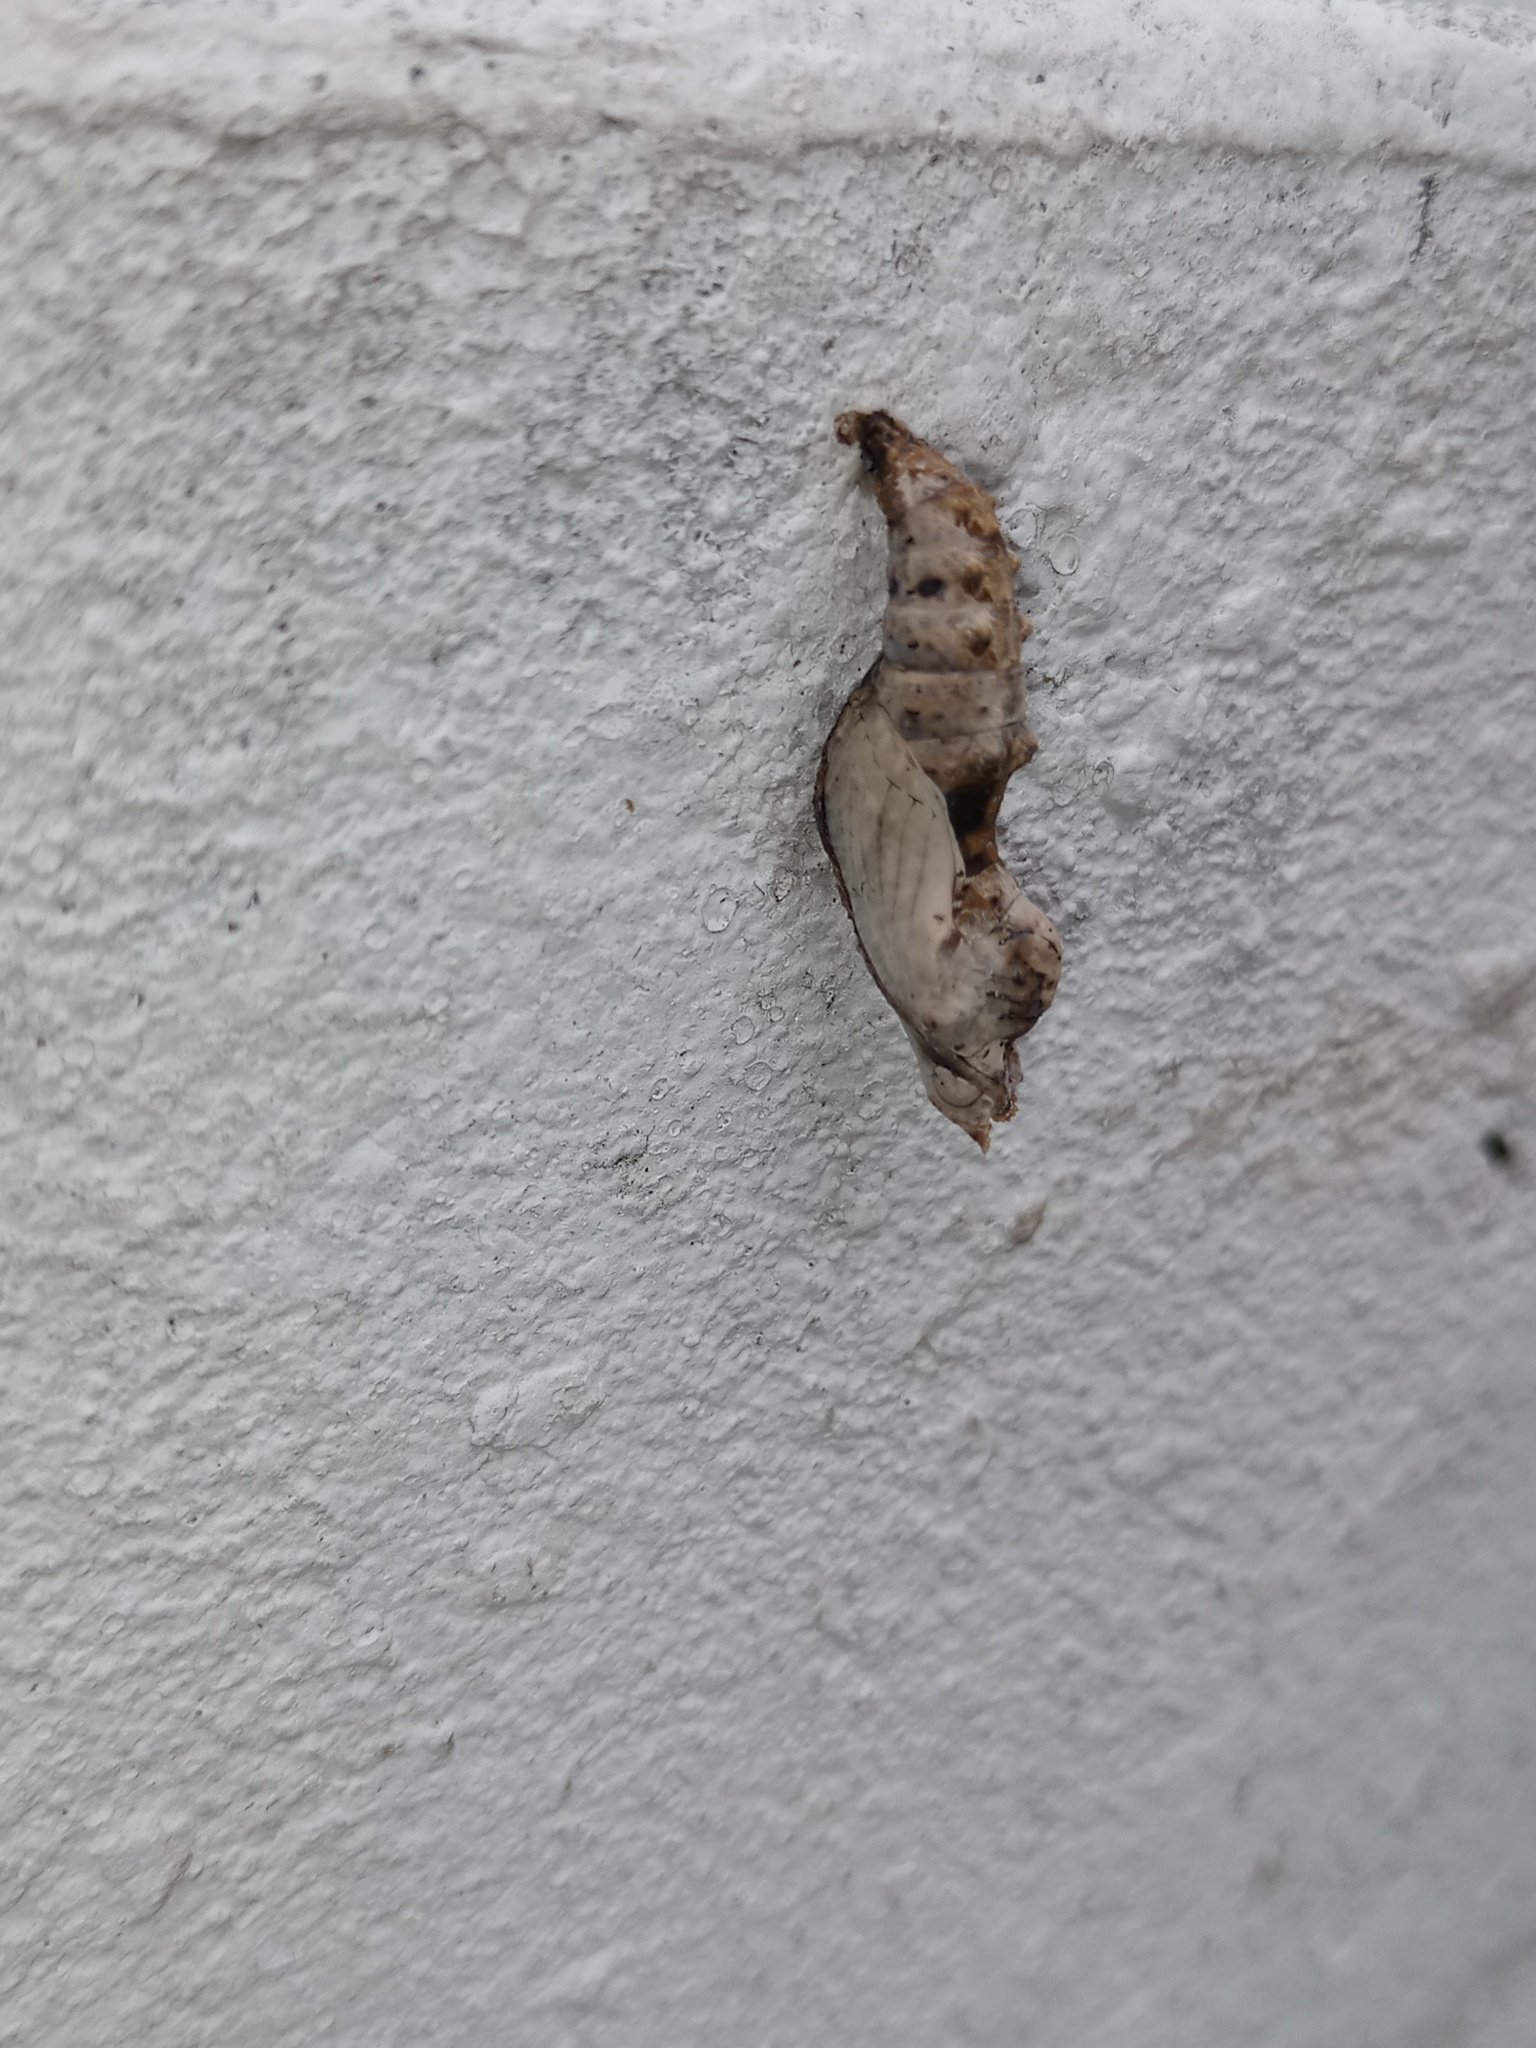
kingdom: Animalia
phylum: Arthropoda
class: Insecta
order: Lepidoptera
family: Nymphalidae
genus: Dione
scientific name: Dione vanillae
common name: Gulf fritillary
